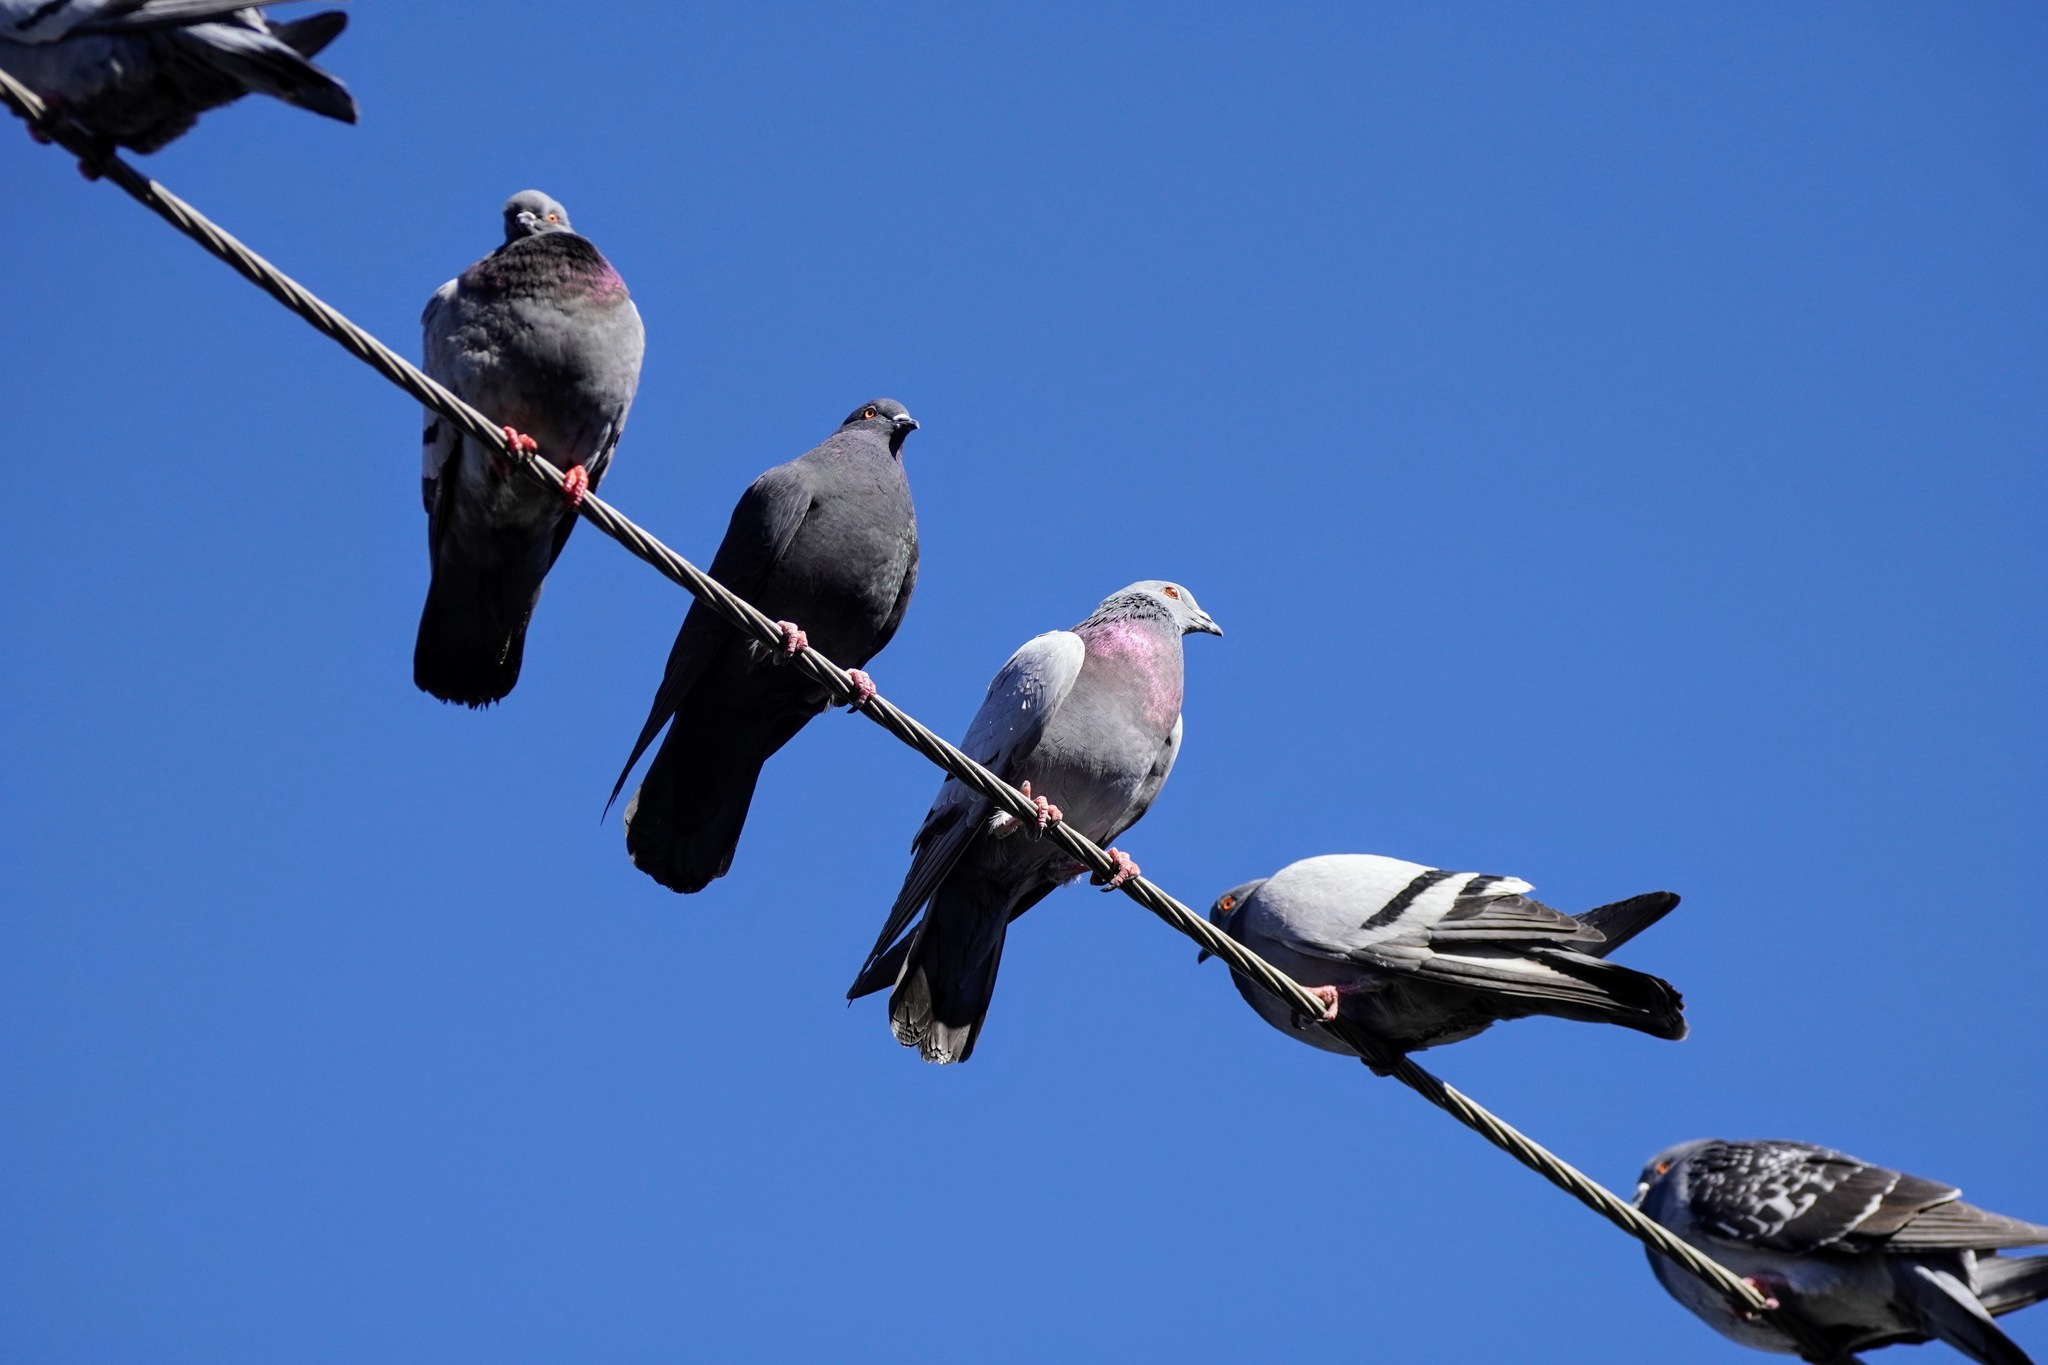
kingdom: Animalia
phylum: Chordata
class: Aves
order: Columbiformes
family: Columbidae
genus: Columba
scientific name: Columba livia
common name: Rock pigeon
